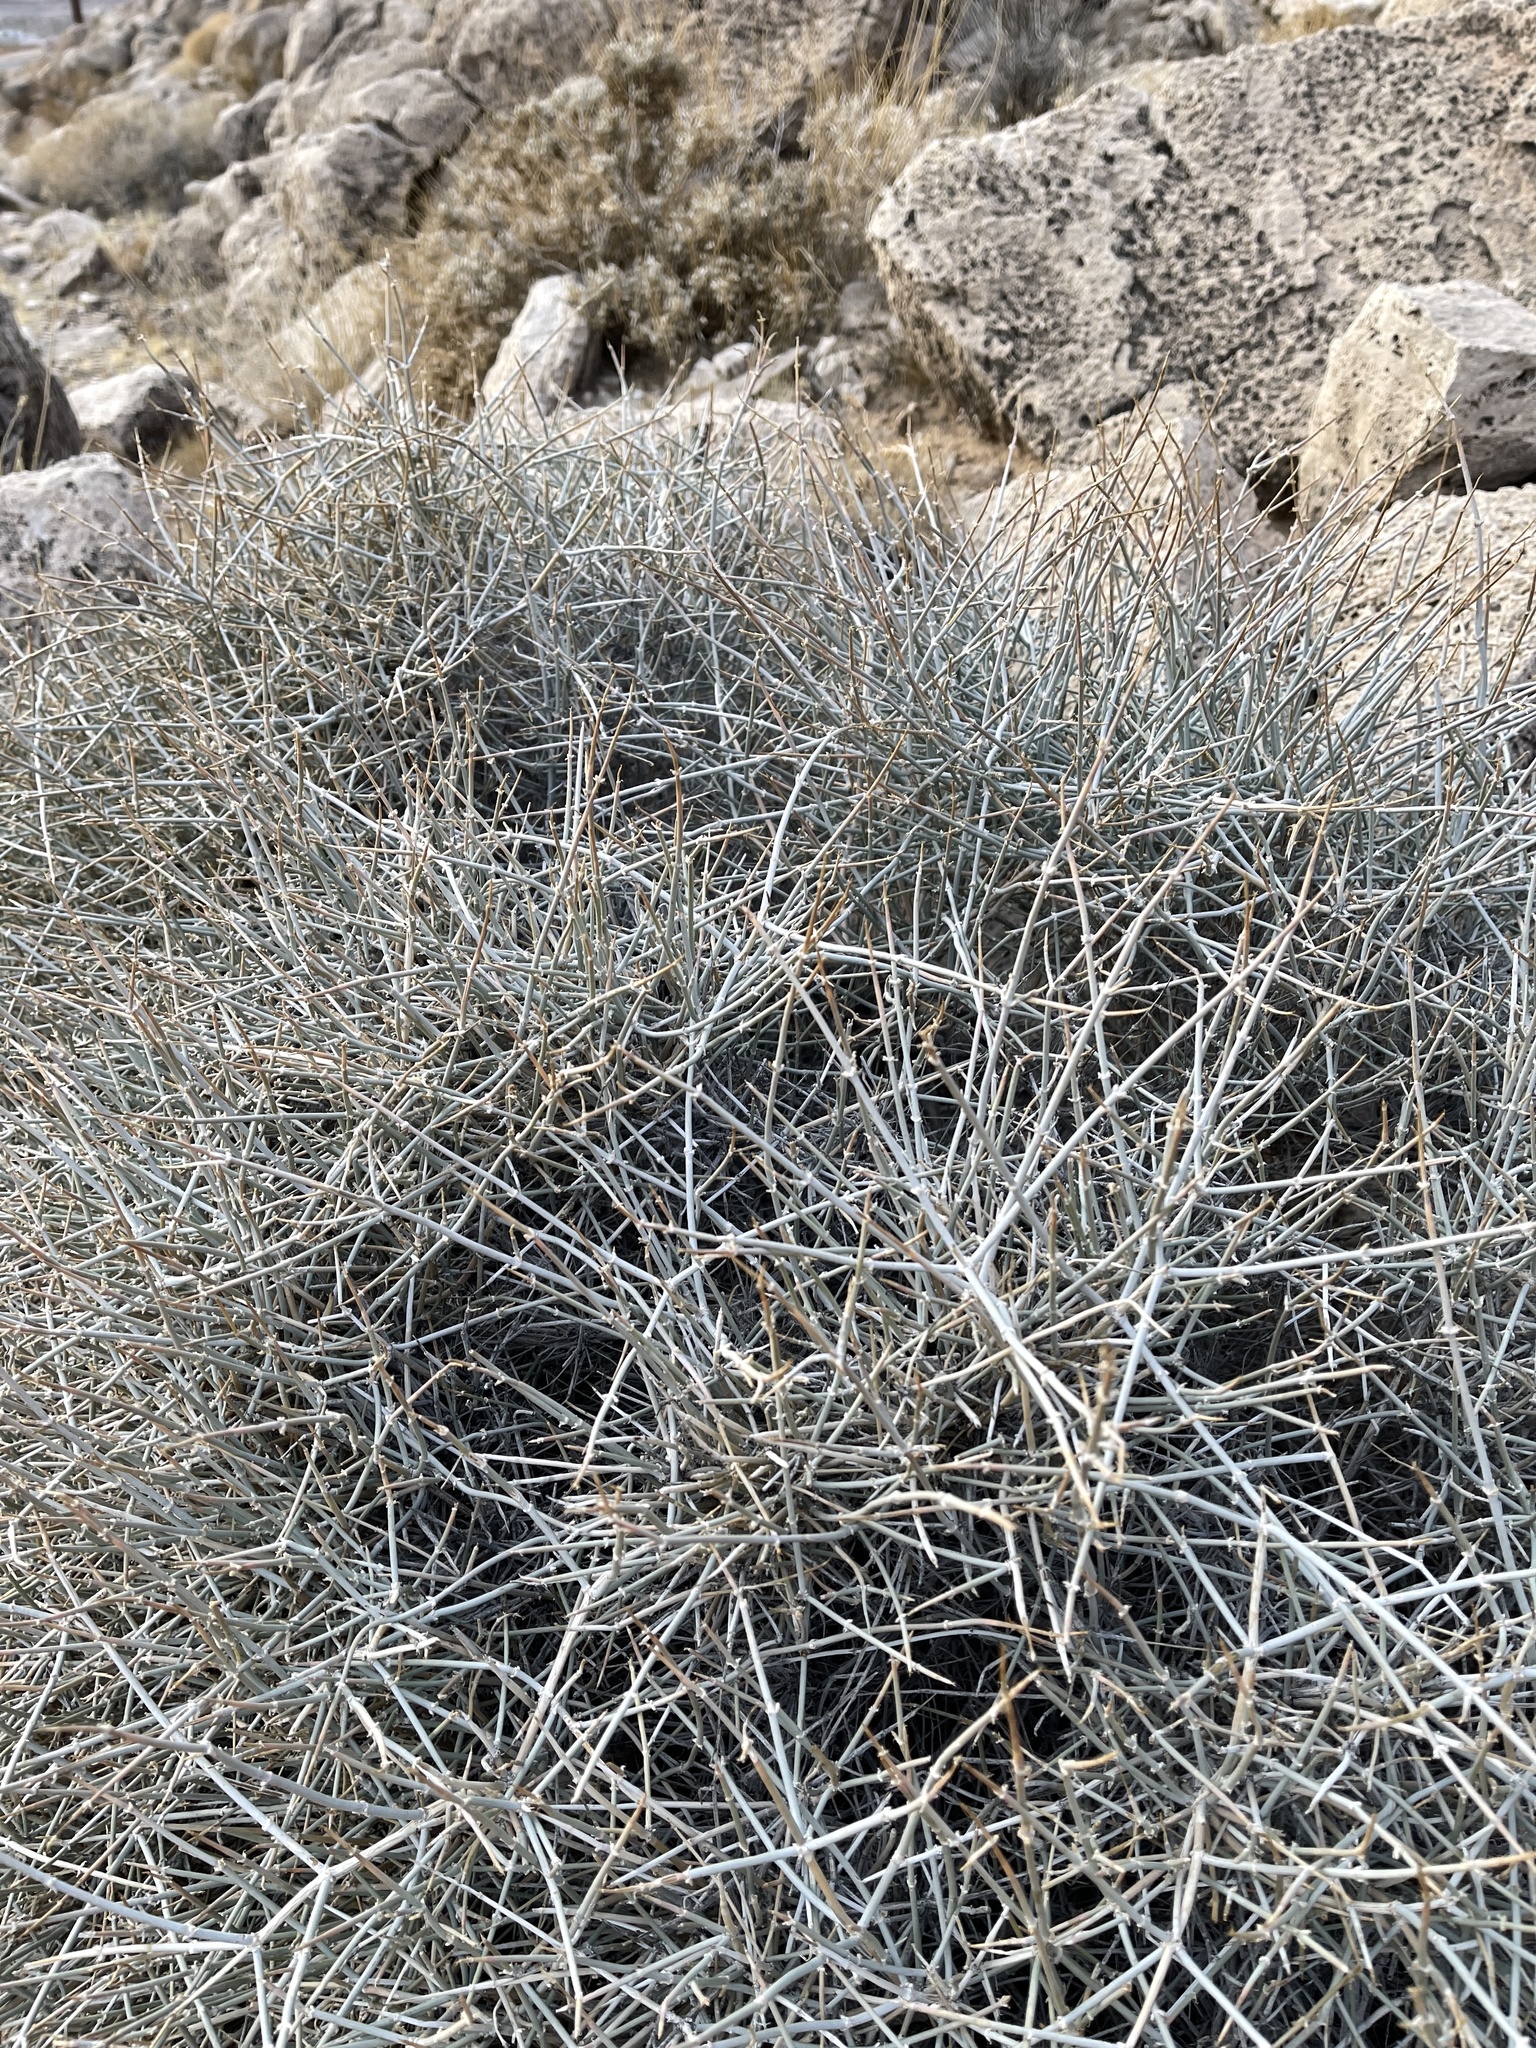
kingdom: Plantae
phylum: Tracheophyta
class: Gnetopsida
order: Ephedrales
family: Ephedraceae
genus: Ephedra
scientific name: Ephedra nevadensis
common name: Gray ephedra
